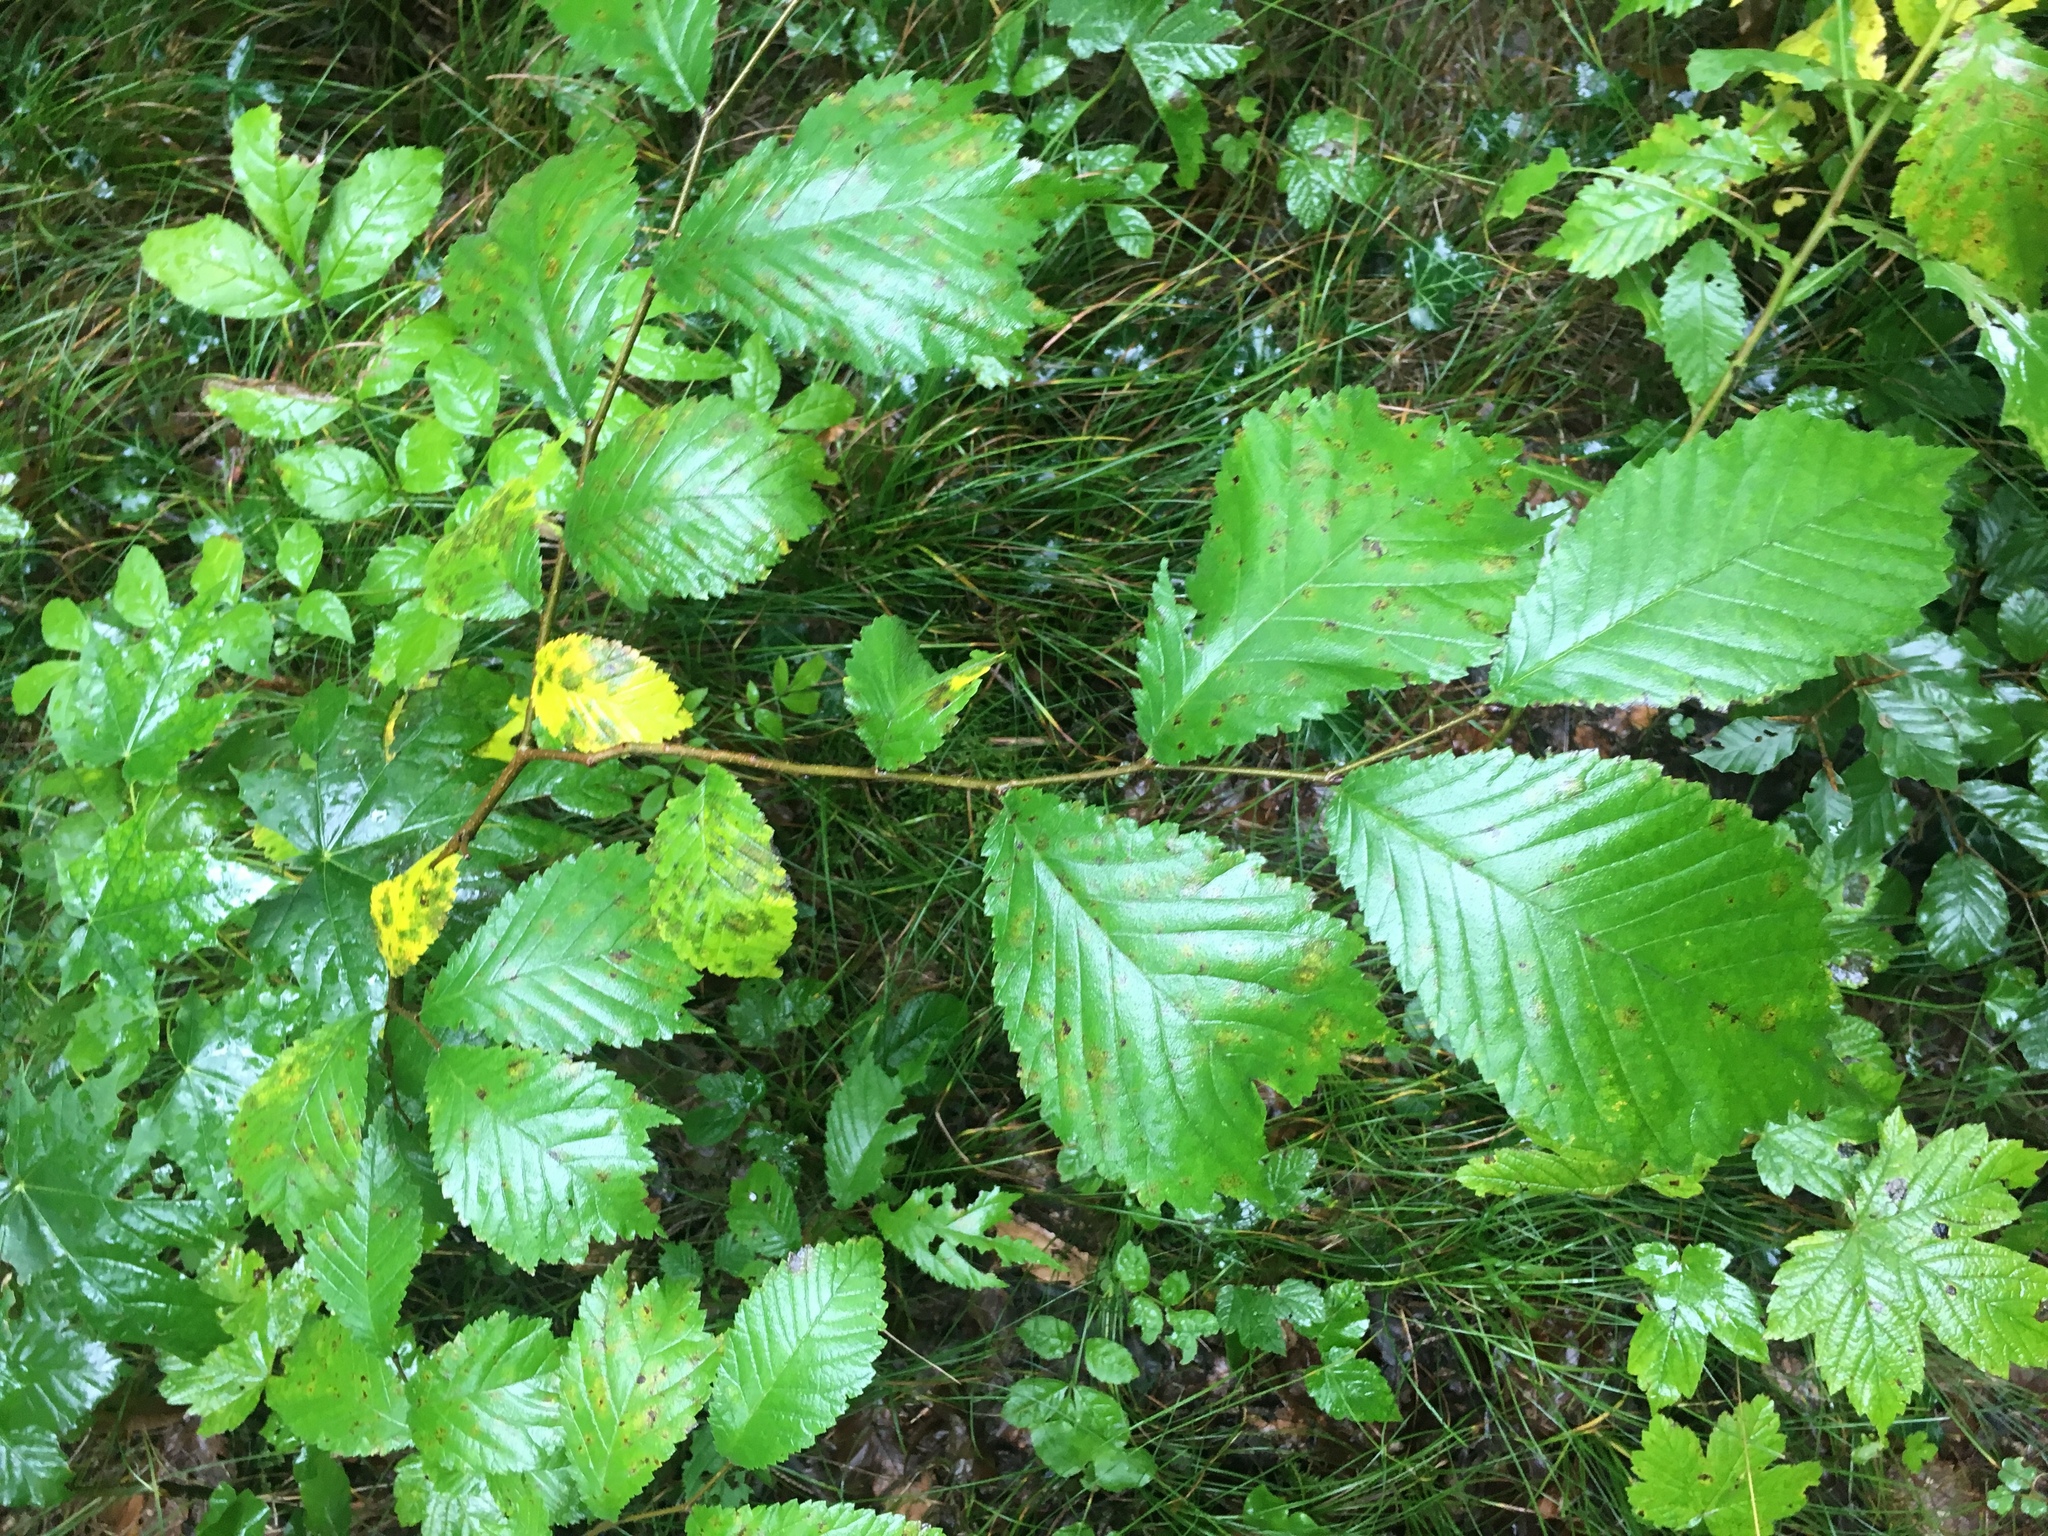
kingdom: Plantae
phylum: Tracheophyta
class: Magnoliopsida
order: Rosales
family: Ulmaceae
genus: Ulmus
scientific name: Ulmus glabra
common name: Wych elm
